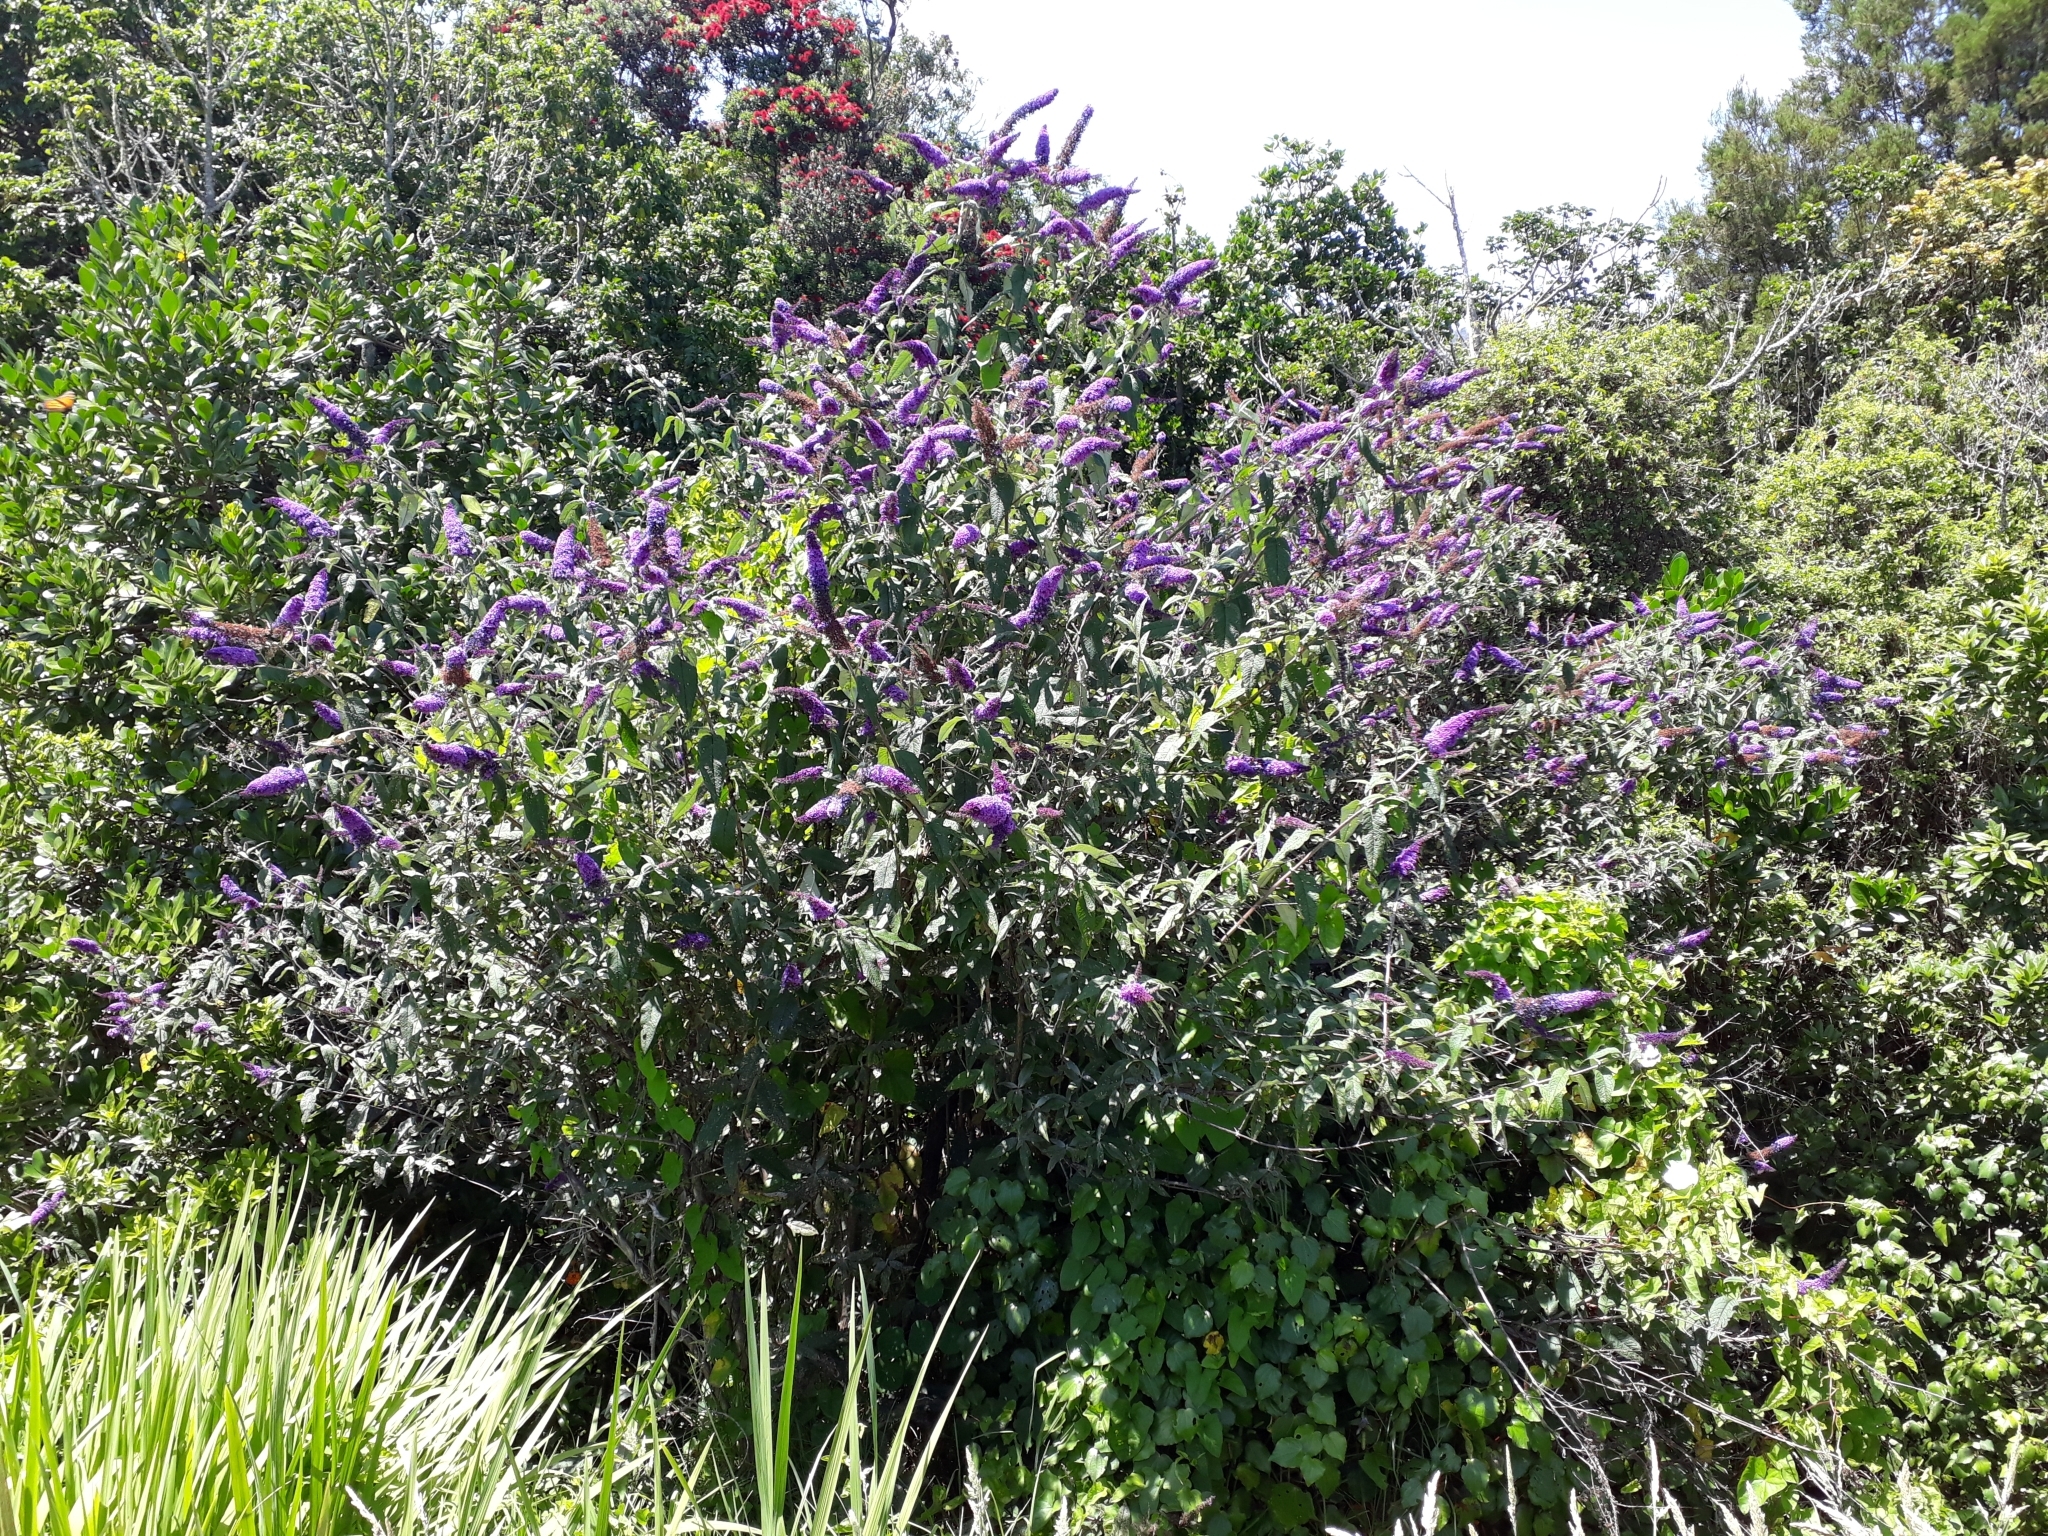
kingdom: Plantae
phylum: Tracheophyta
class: Magnoliopsida
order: Lamiales
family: Scrophulariaceae
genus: Buddleja
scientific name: Buddleja davidii
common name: Butterfly-bush
